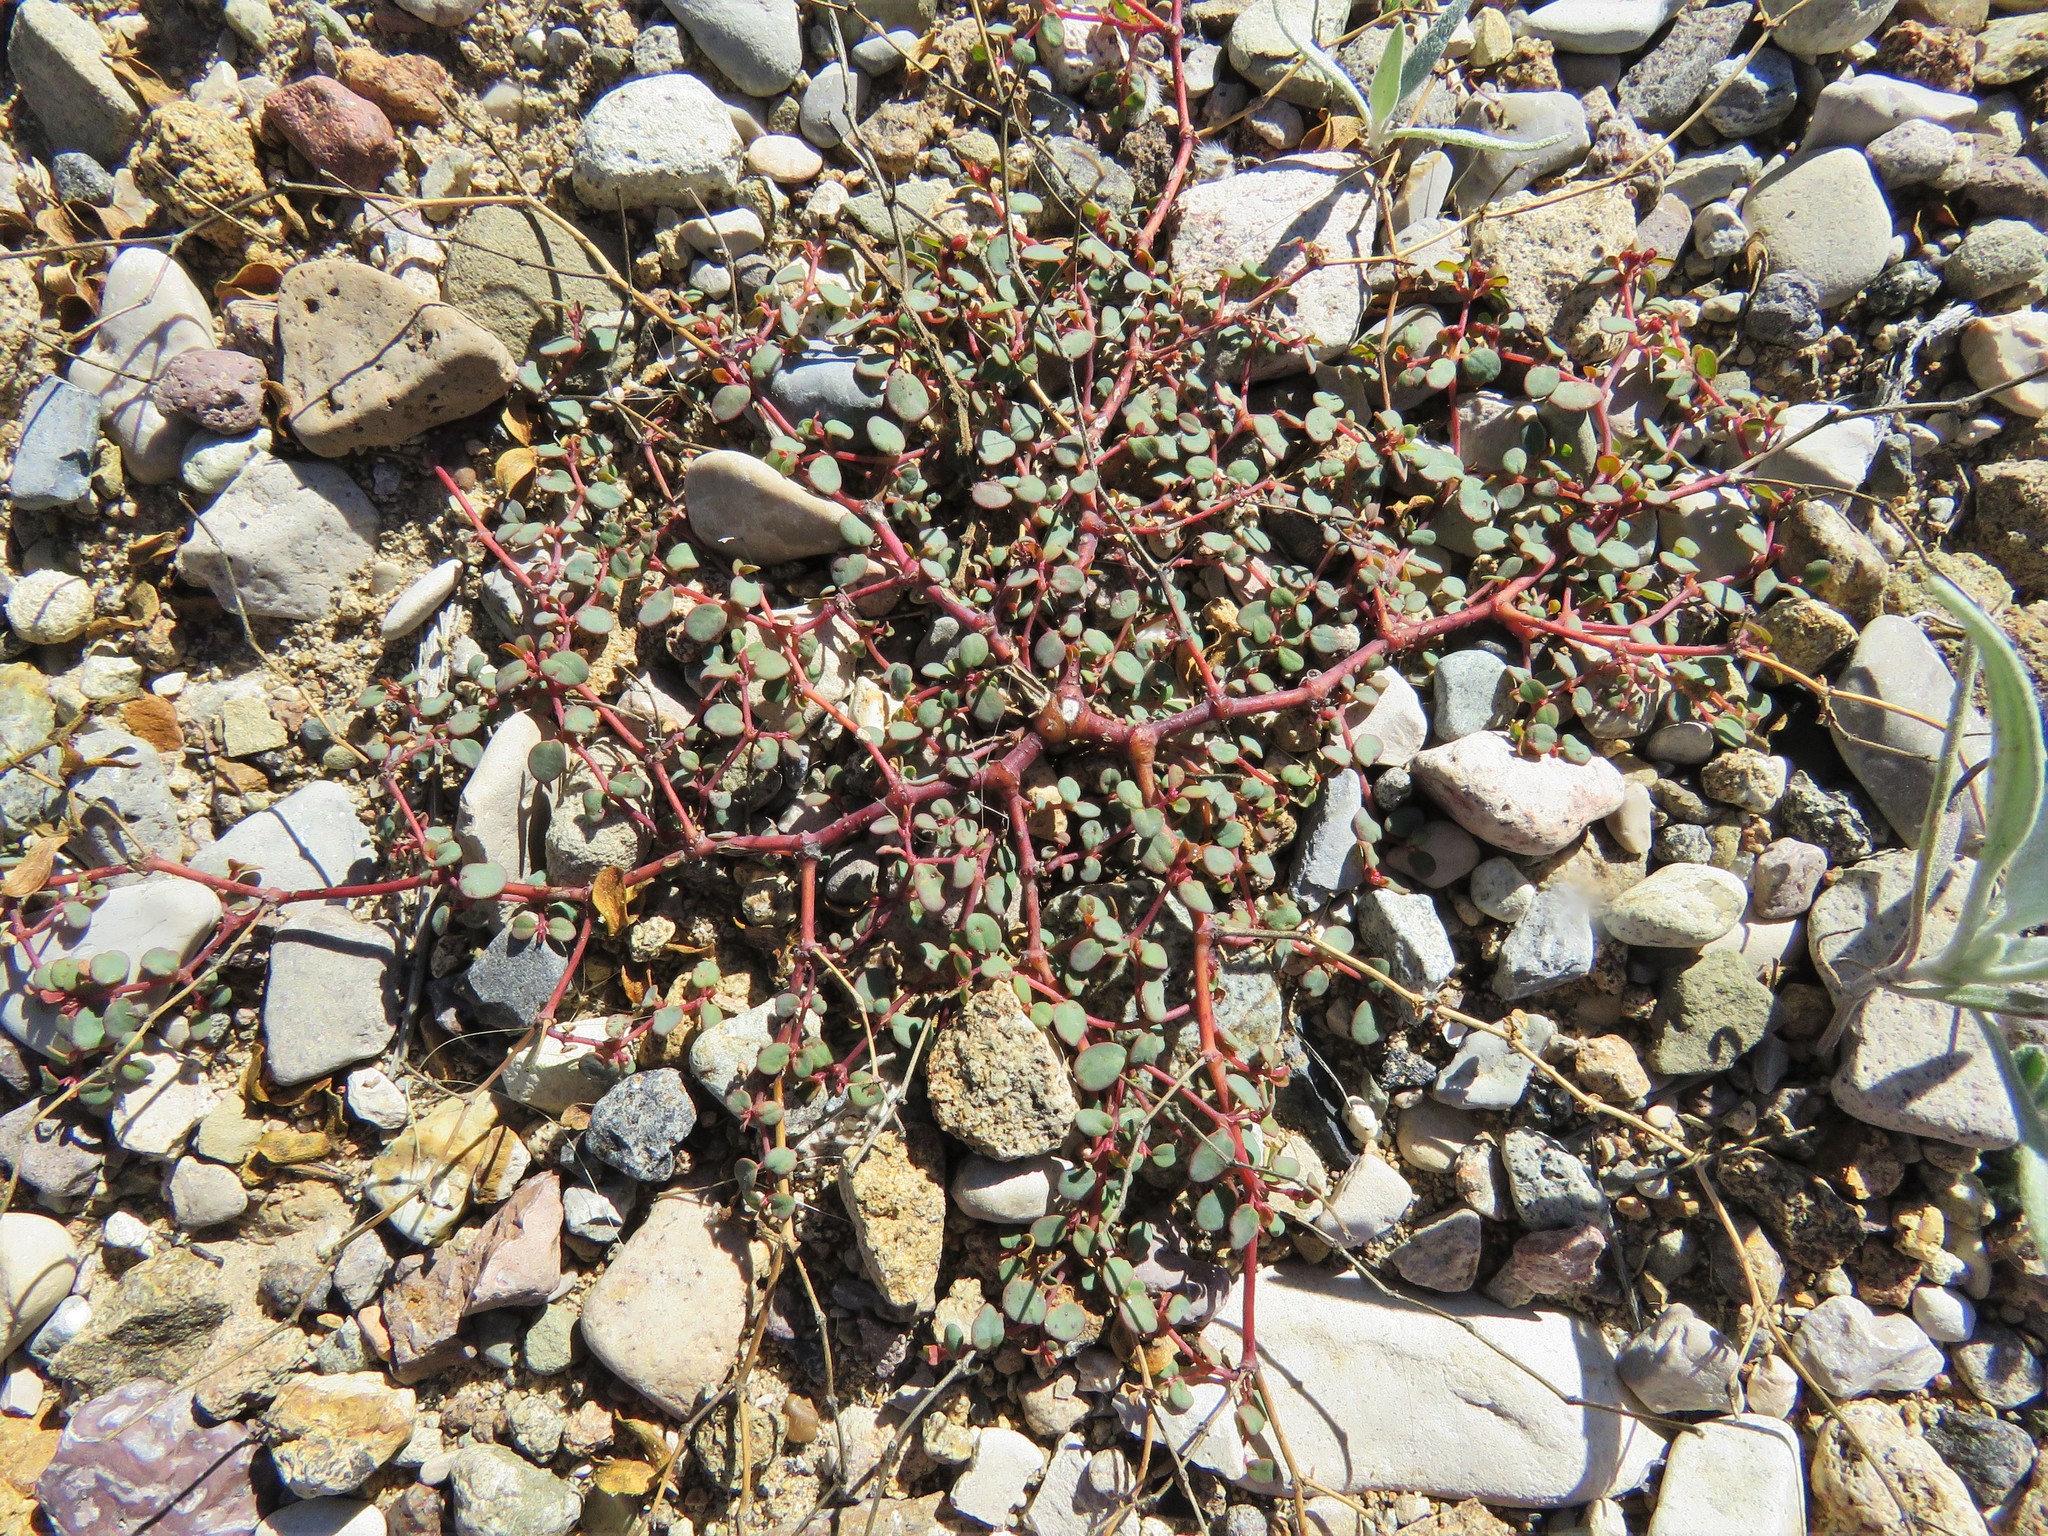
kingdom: Plantae
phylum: Tracheophyta
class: Magnoliopsida
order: Malpighiales
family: Euphorbiaceae
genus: Euphorbia
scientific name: Euphorbia simulans
